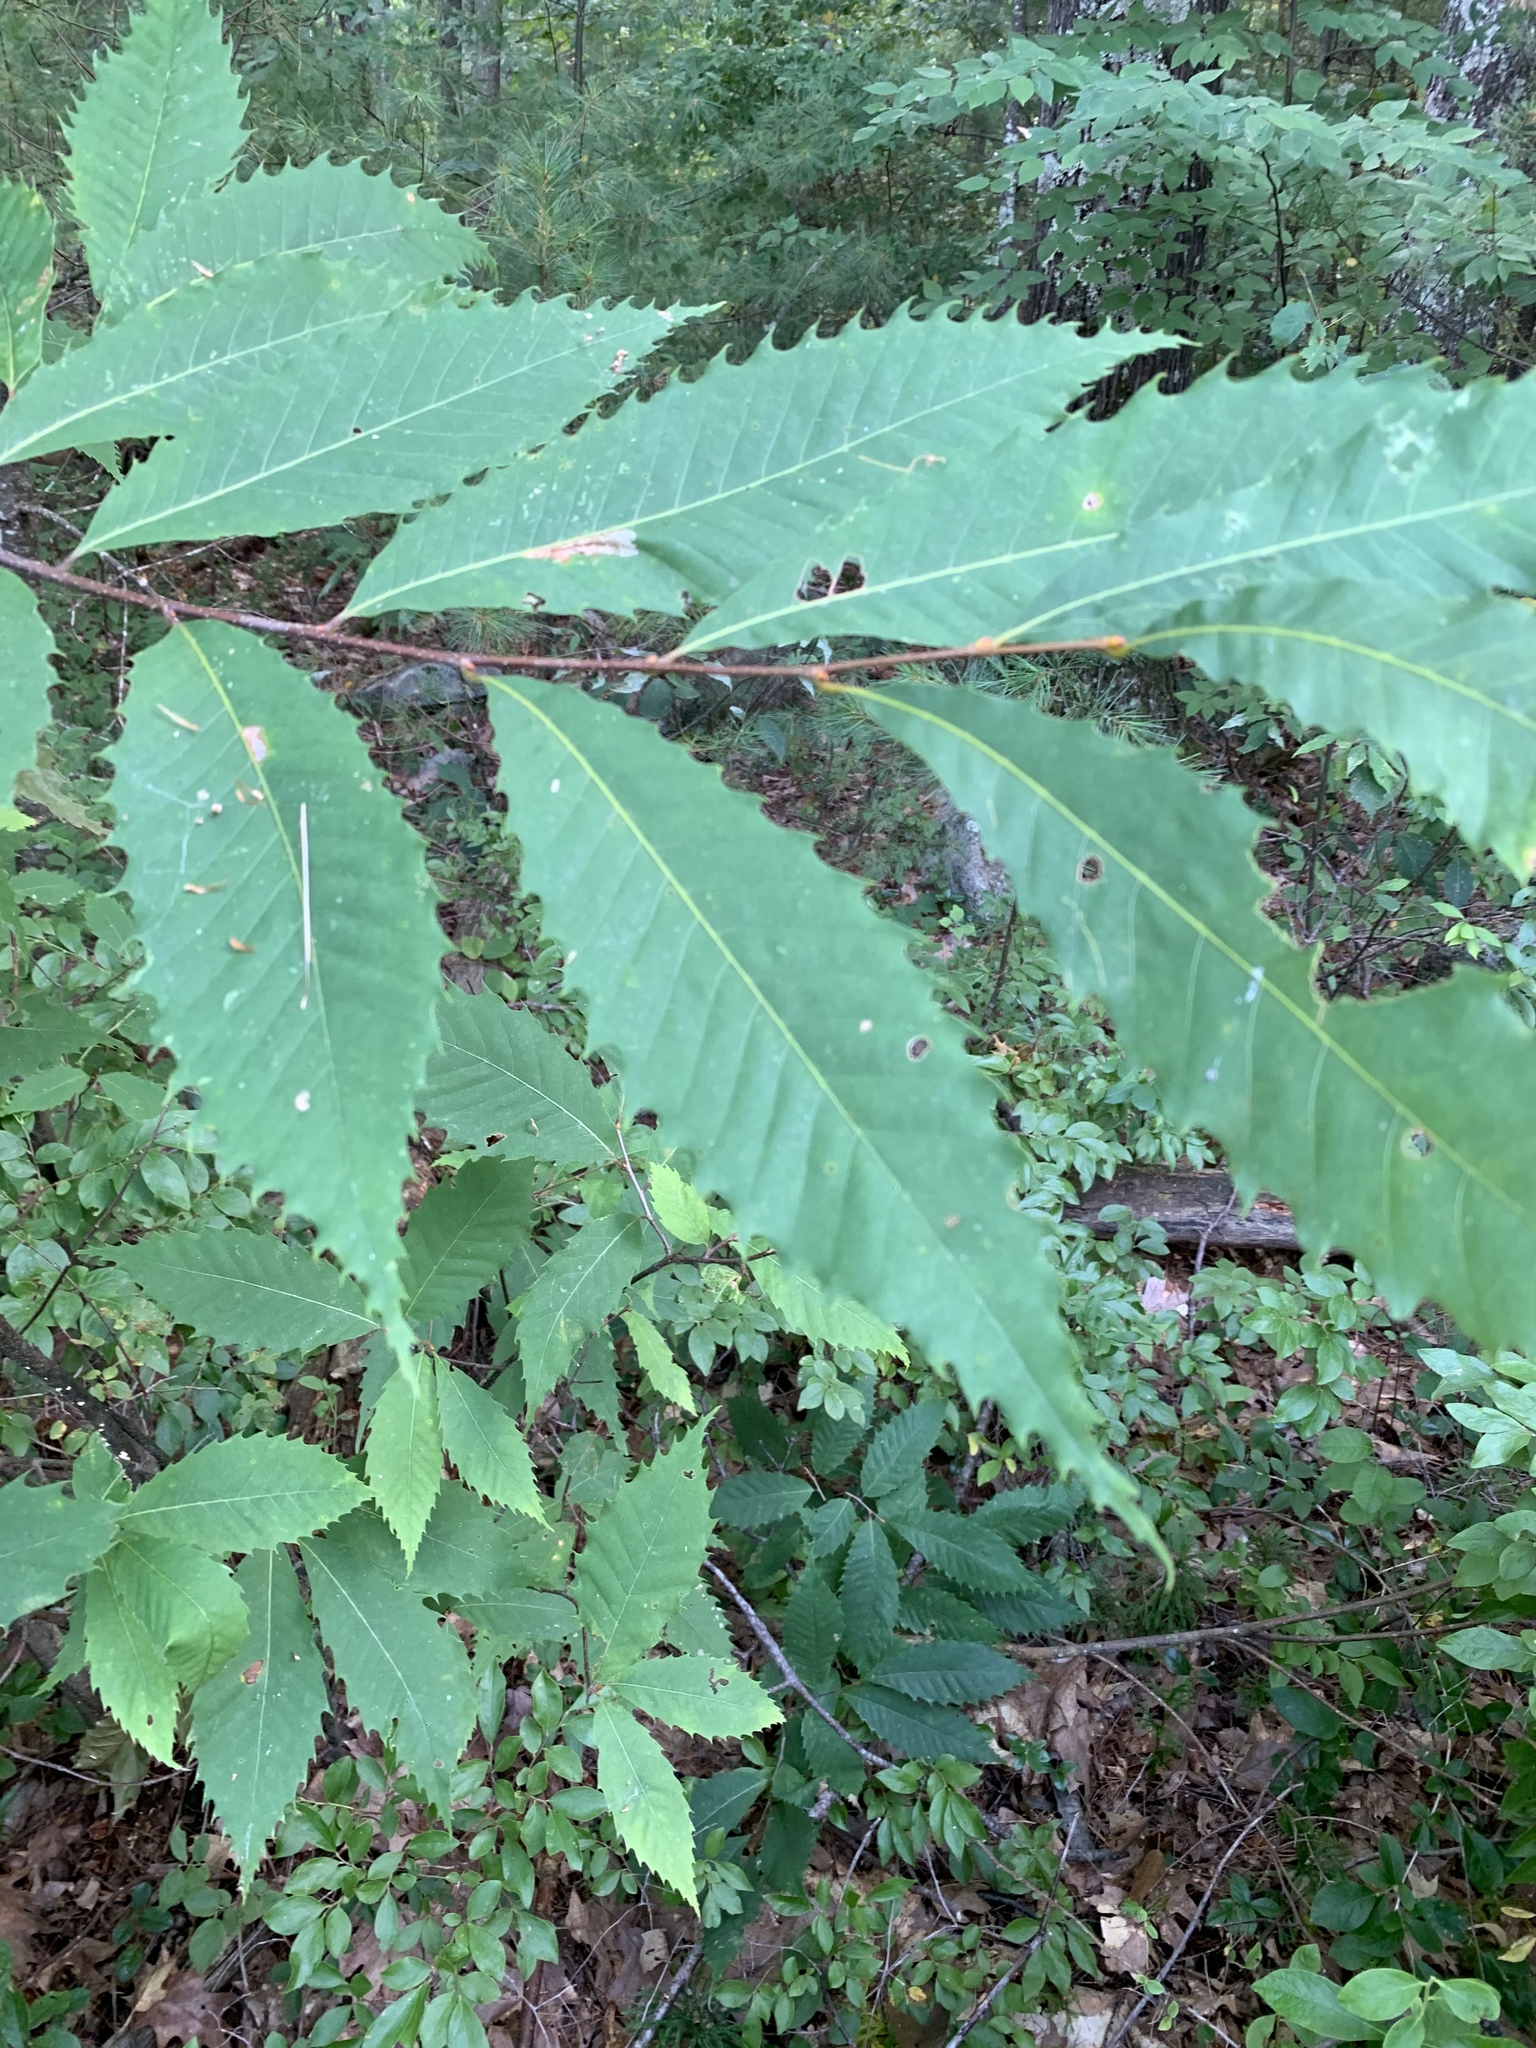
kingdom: Plantae
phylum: Tracheophyta
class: Magnoliopsida
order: Fagales
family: Fagaceae
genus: Castanea
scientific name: Castanea dentata
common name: American chestnut
